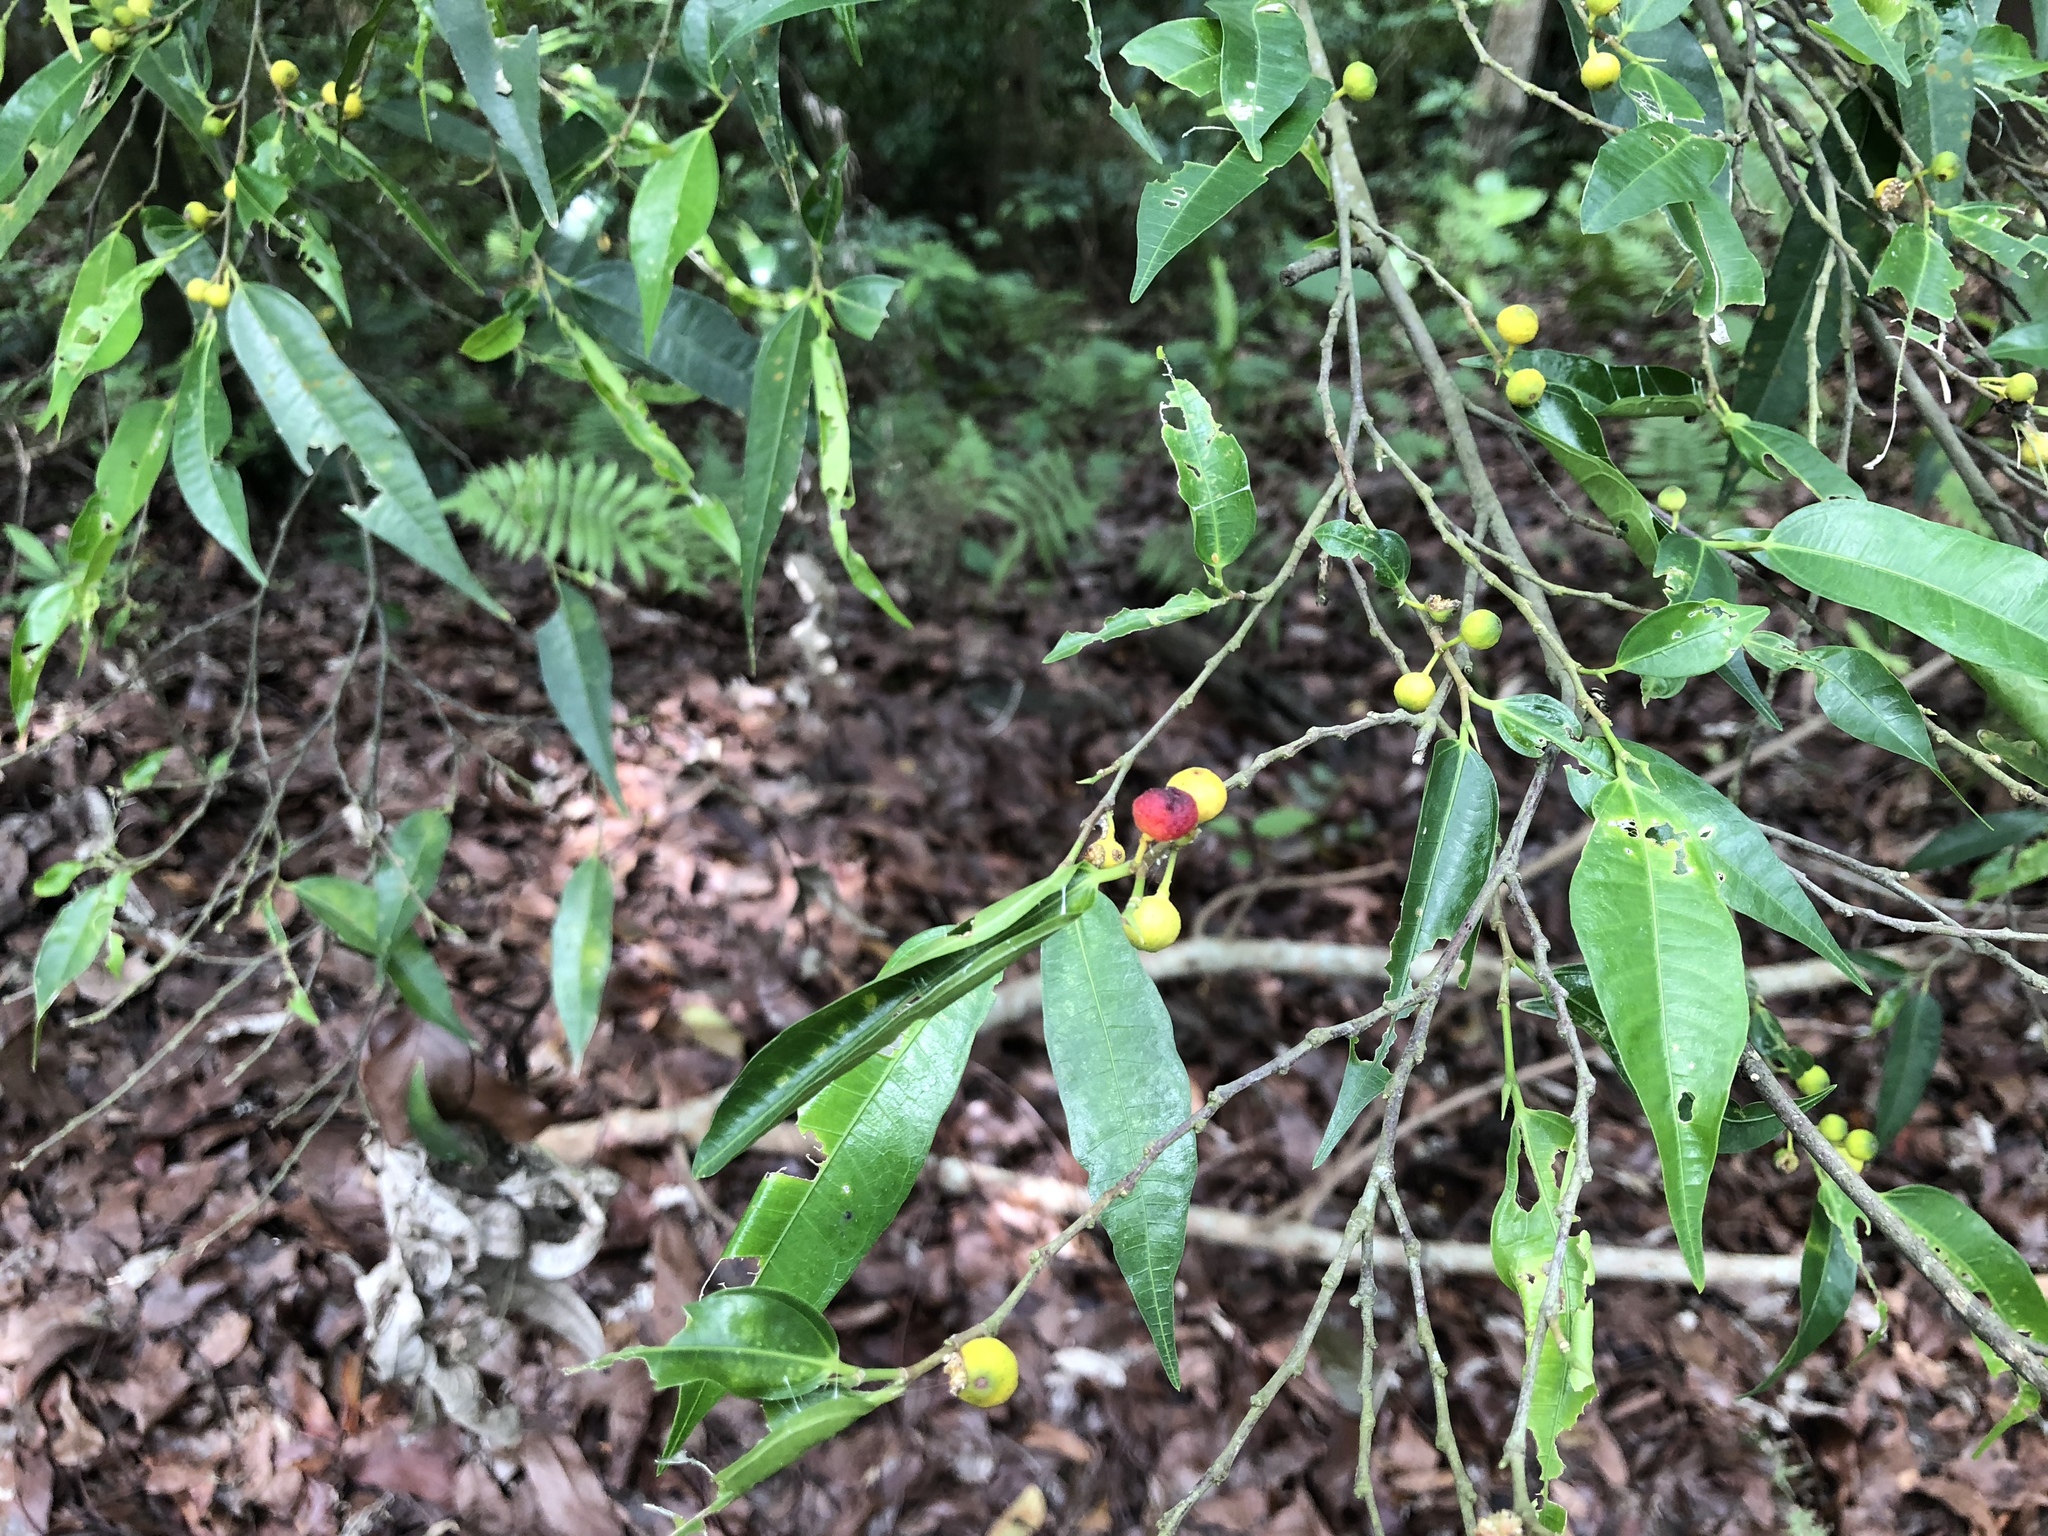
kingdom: Plantae
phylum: Tracheophyta
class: Magnoliopsida
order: Rosales
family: Moraceae
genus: Ficus
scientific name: Ficus ampelos
